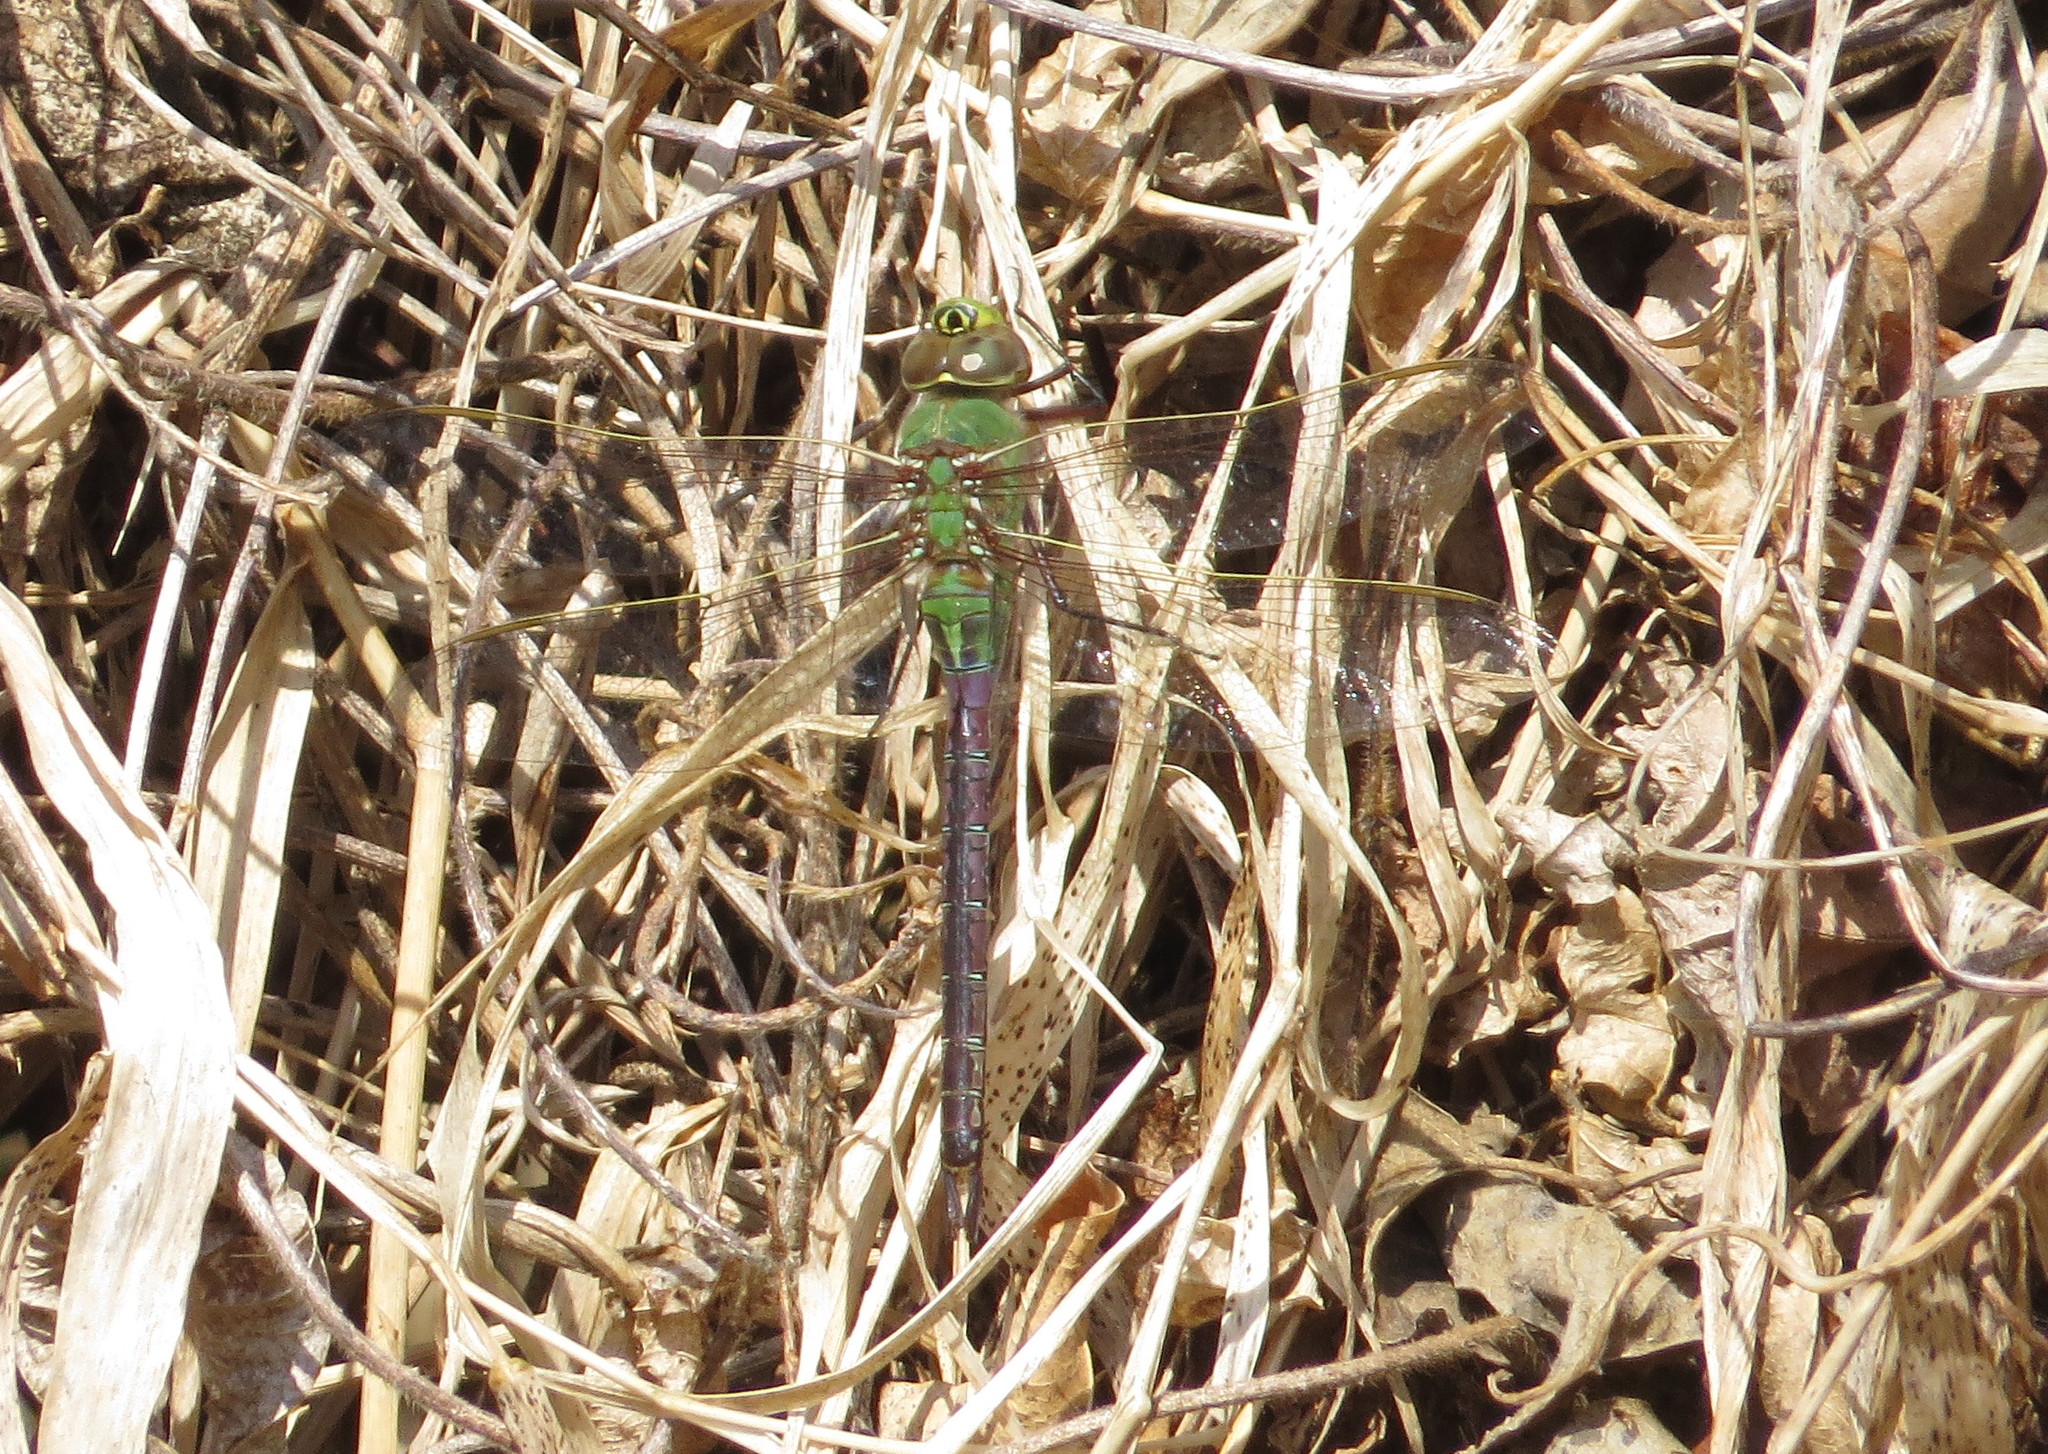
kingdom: Animalia
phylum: Arthropoda
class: Insecta
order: Odonata
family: Aeshnidae
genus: Anax
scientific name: Anax junius
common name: Common green darner
